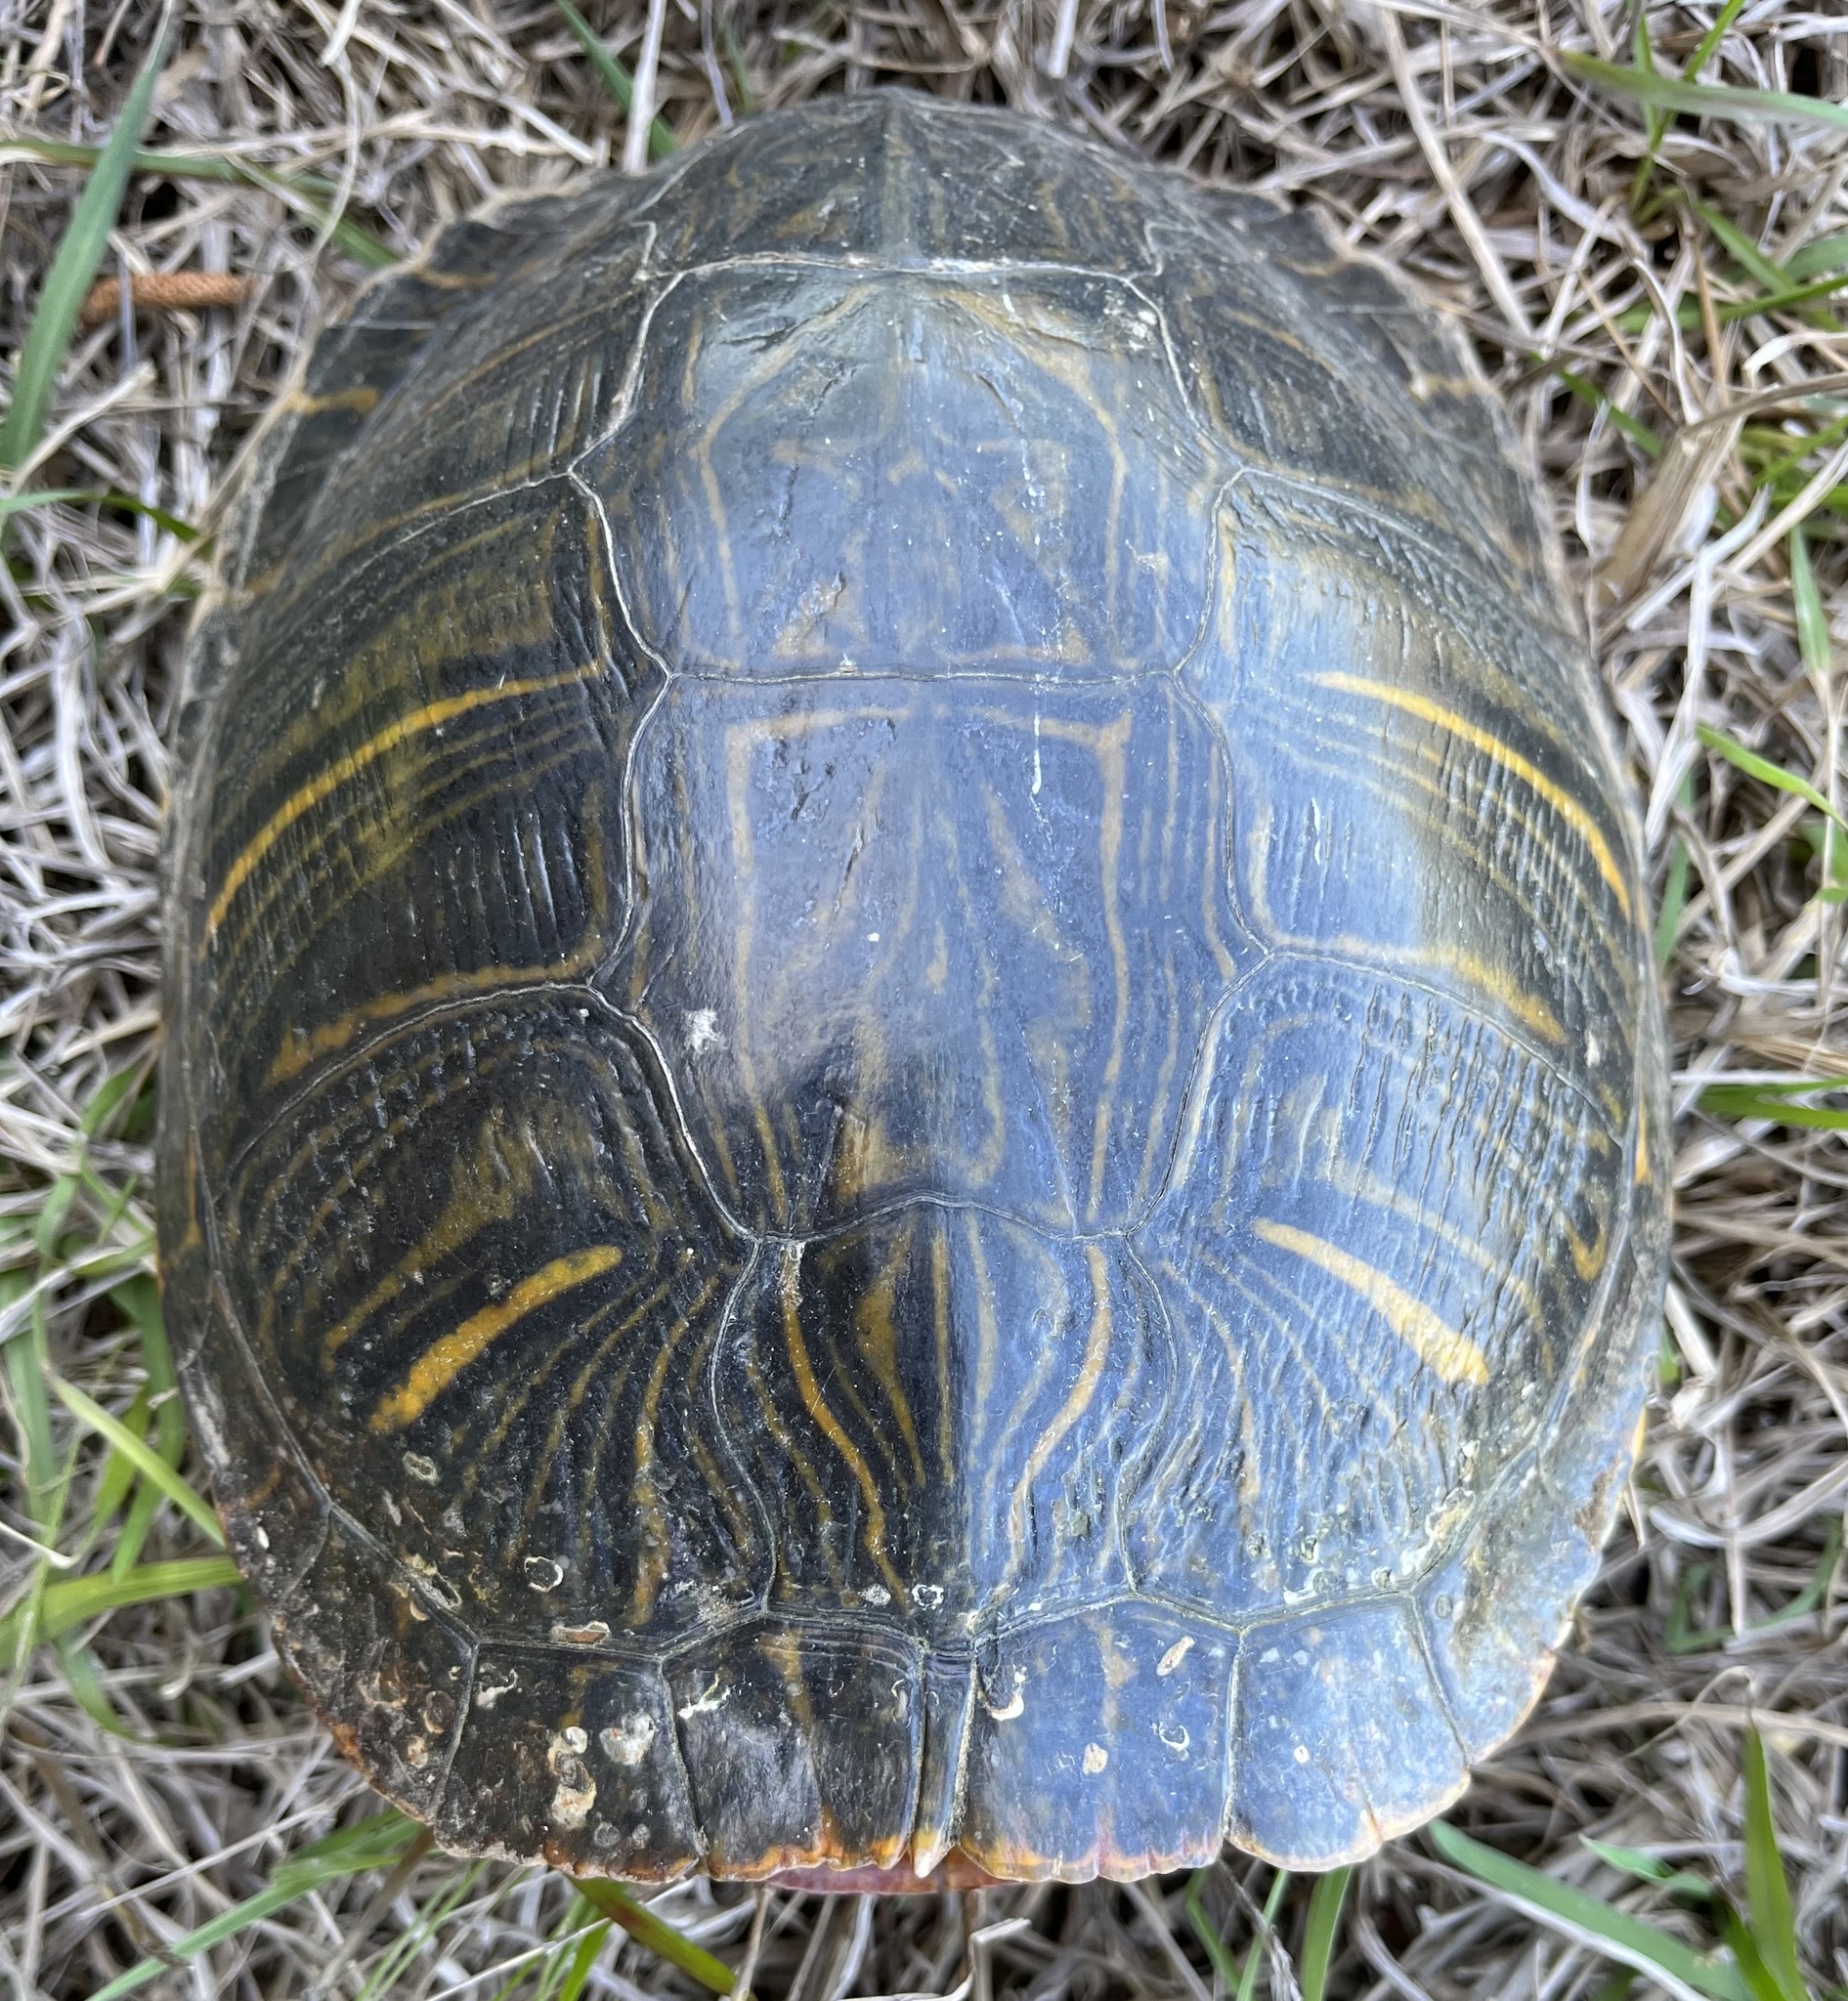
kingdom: Animalia
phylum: Chordata
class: Testudines
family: Emydidae
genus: Trachemys
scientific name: Trachemys scripta
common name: Slider
